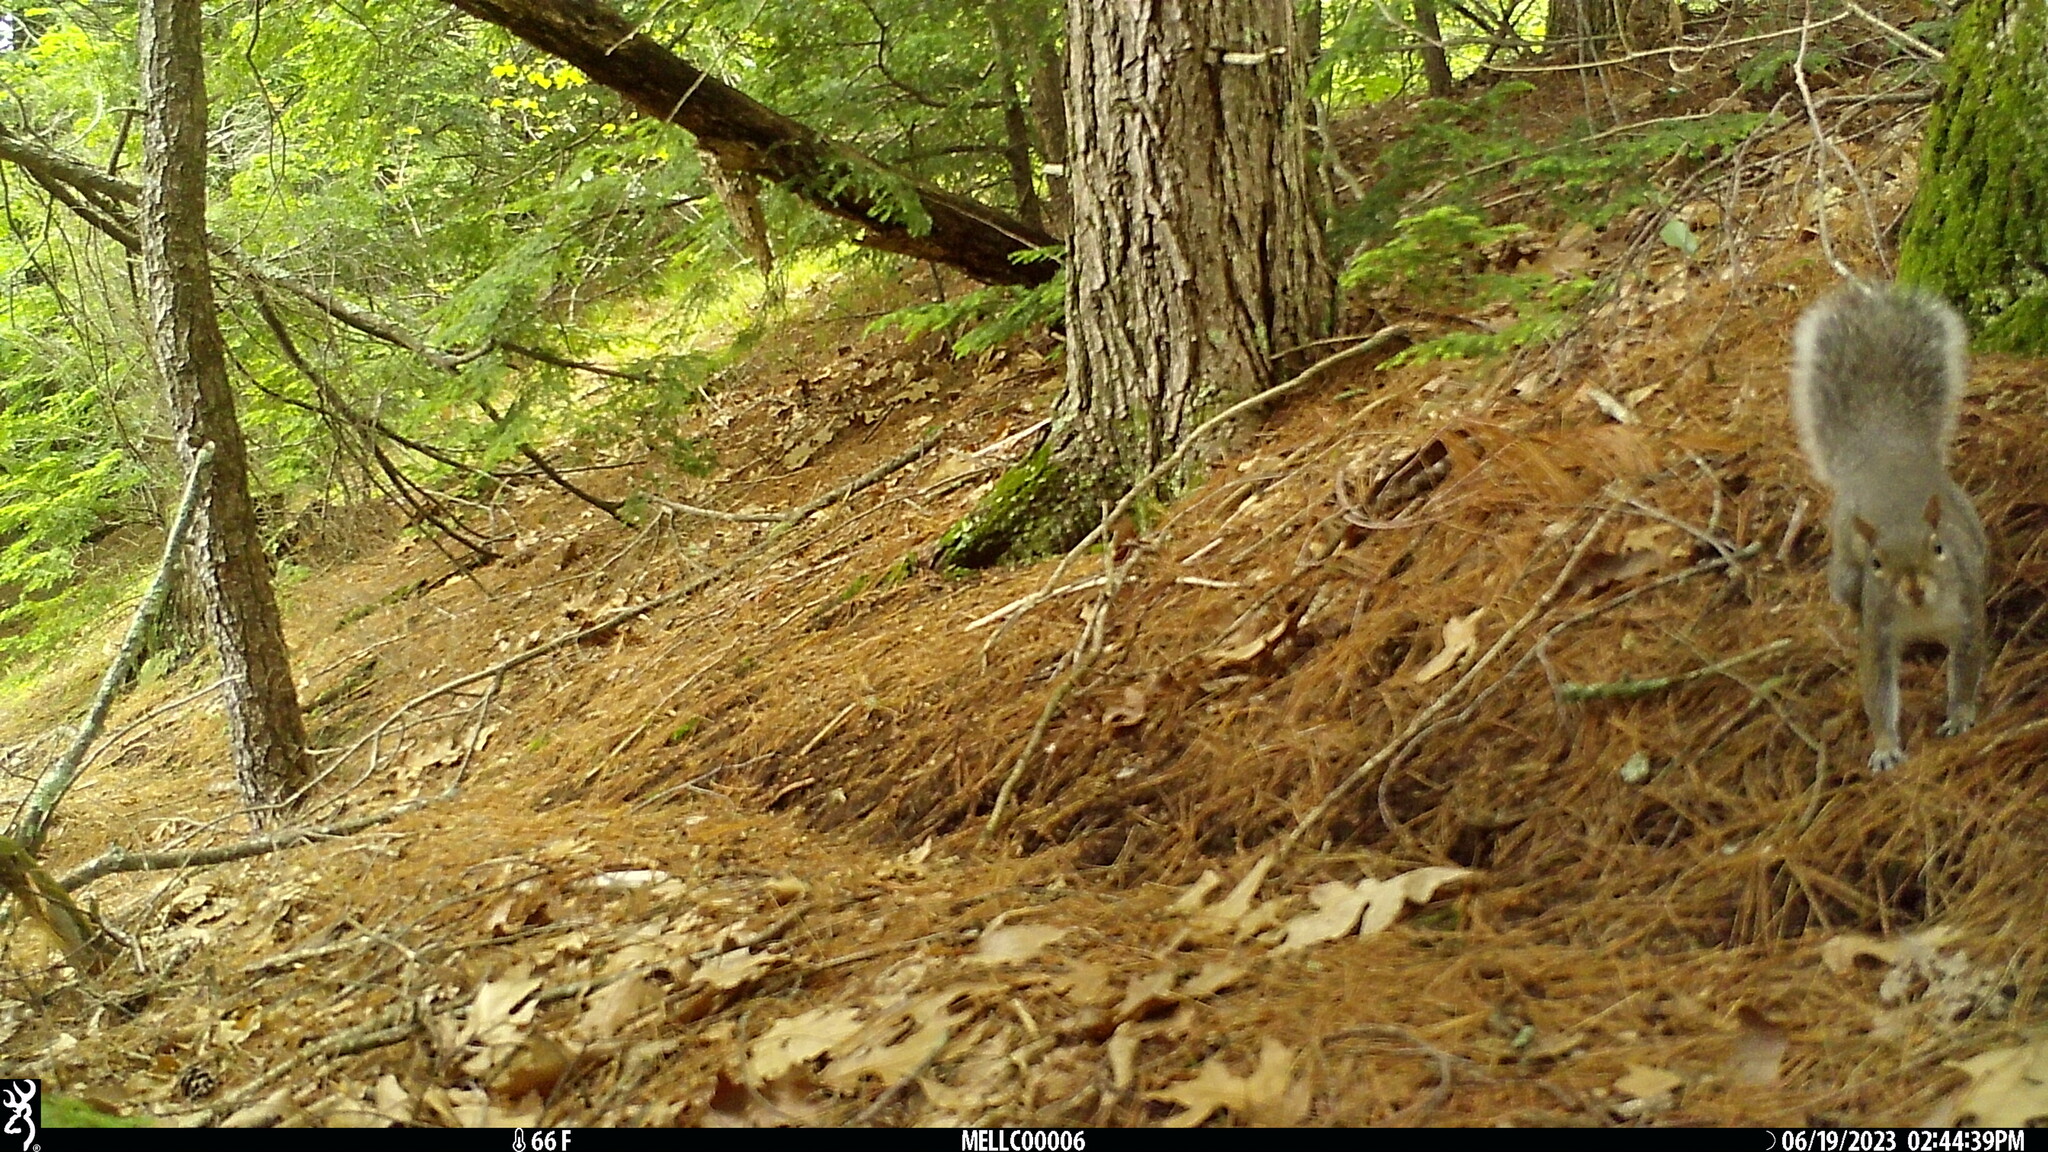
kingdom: Animalia
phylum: Chordata
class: Mammalia
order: Rodentia
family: Sciuridae
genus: Sciurus
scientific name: Sciurus carolinensis
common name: Eastern gray squirrel
